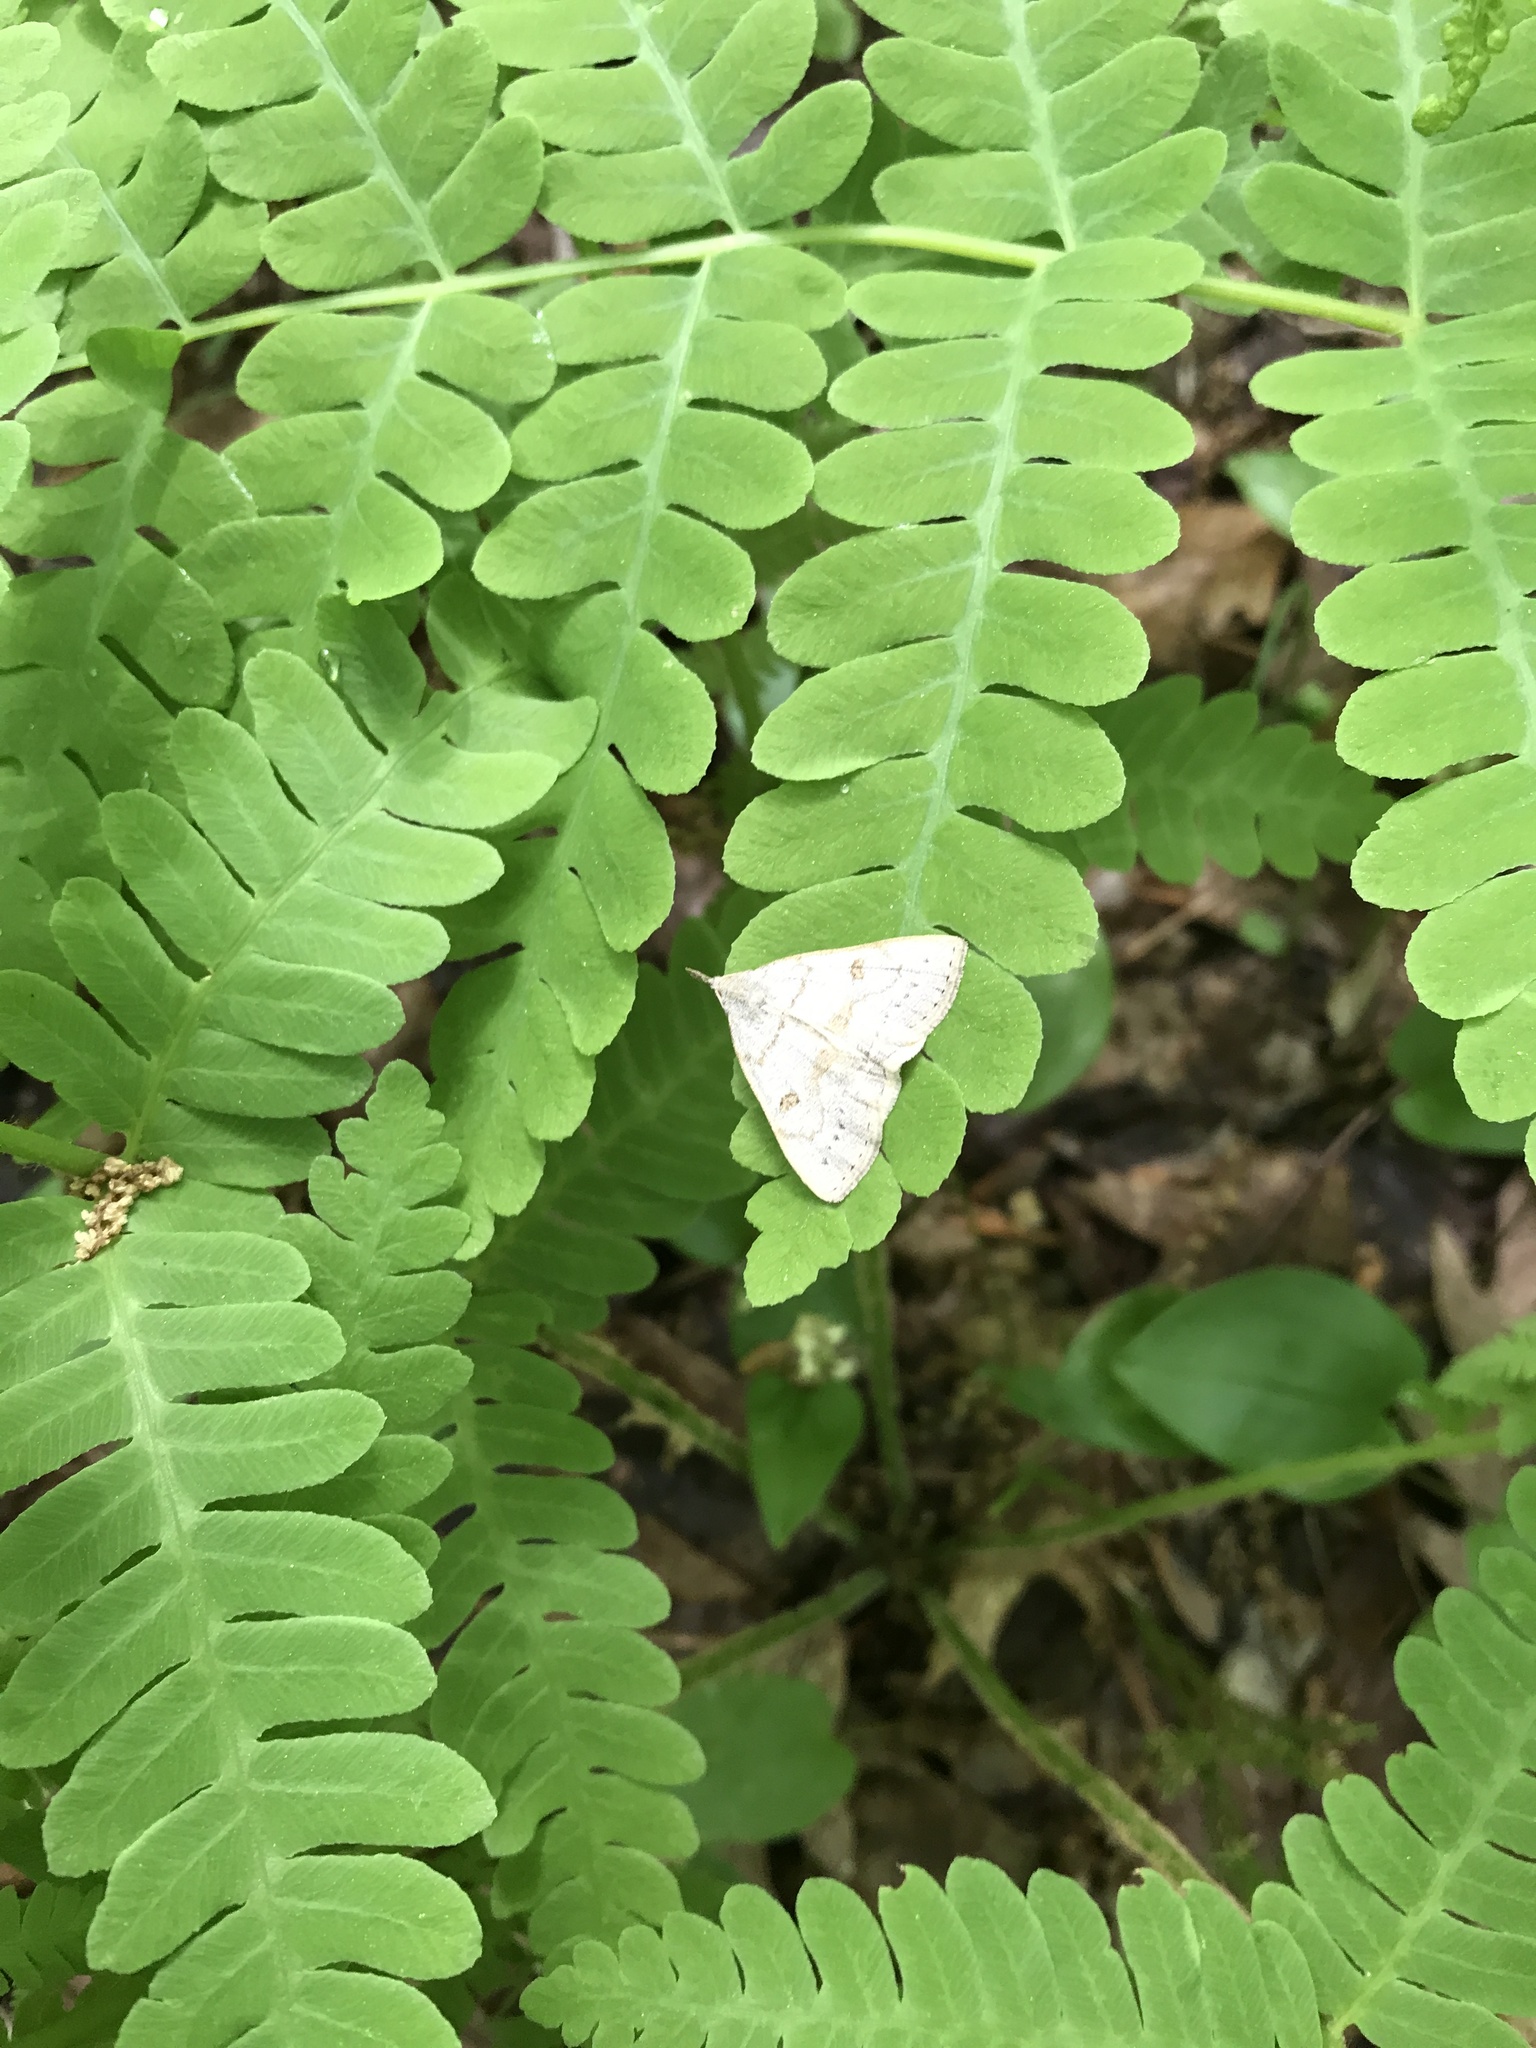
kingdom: Animalia
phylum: Arthropoda
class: Insecta
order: Lepidoptera
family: Erebidae
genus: Macrochilo
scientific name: Macrochilo morbidalis
